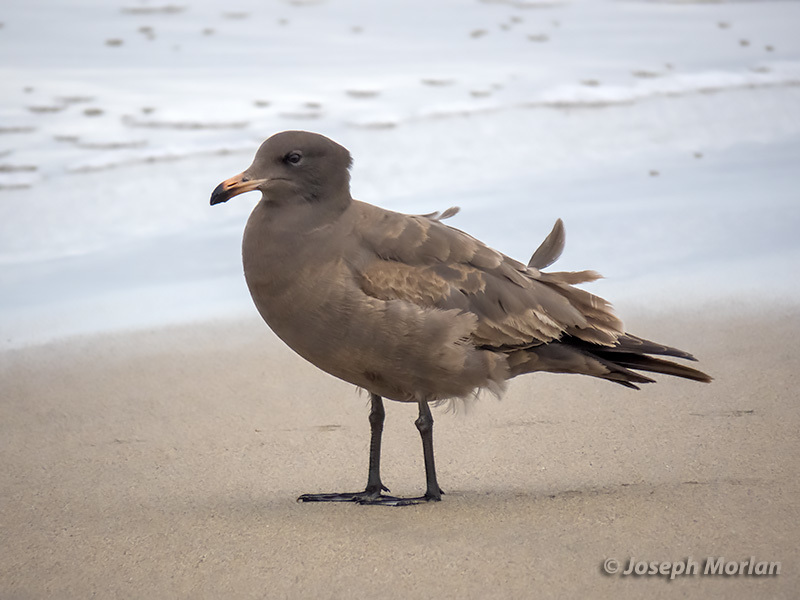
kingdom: Animalia
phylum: Chordata
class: Aves
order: Charadriiformes
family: Laridae
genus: Larus
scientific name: Larus heermanni
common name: Heermann's gull
